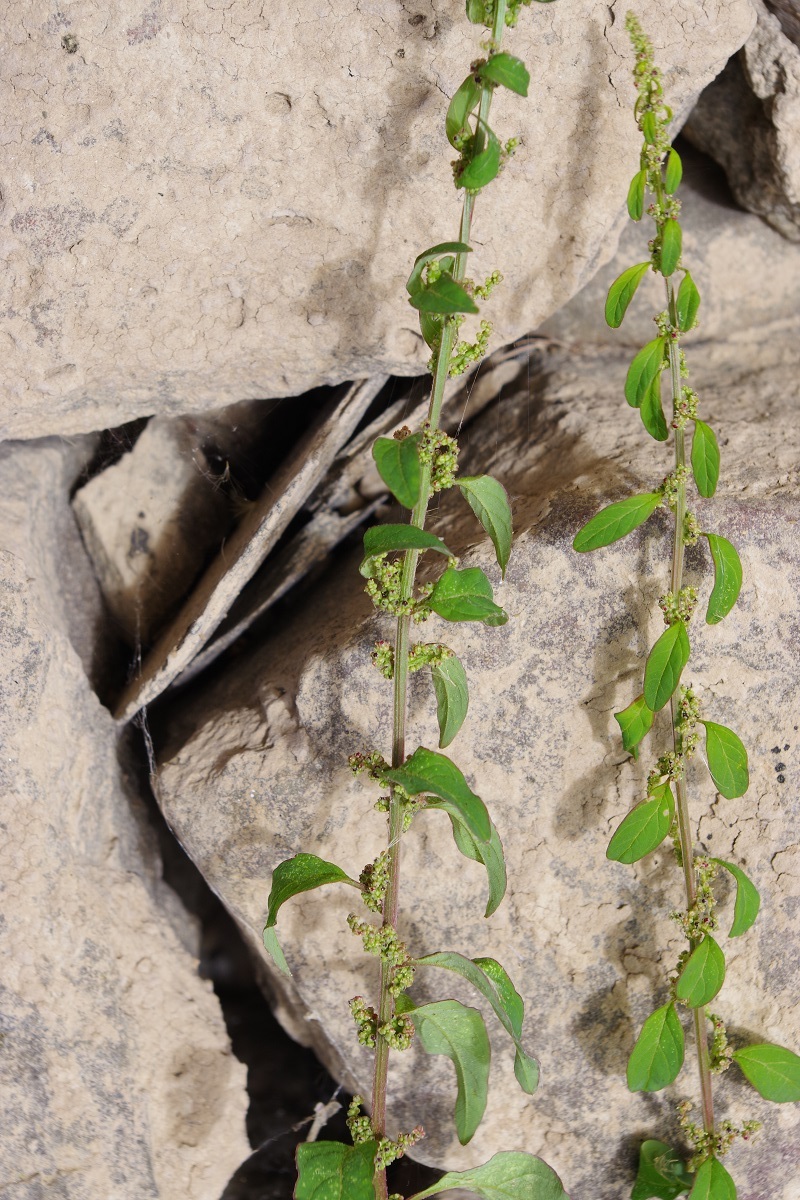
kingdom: Plantae
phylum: Tracheophyta
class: Magnoliopsida
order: Caryophyllales
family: Amaranthaceae
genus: Lipandra
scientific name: Lipandra polysperma
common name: Many-seed goosefoot
